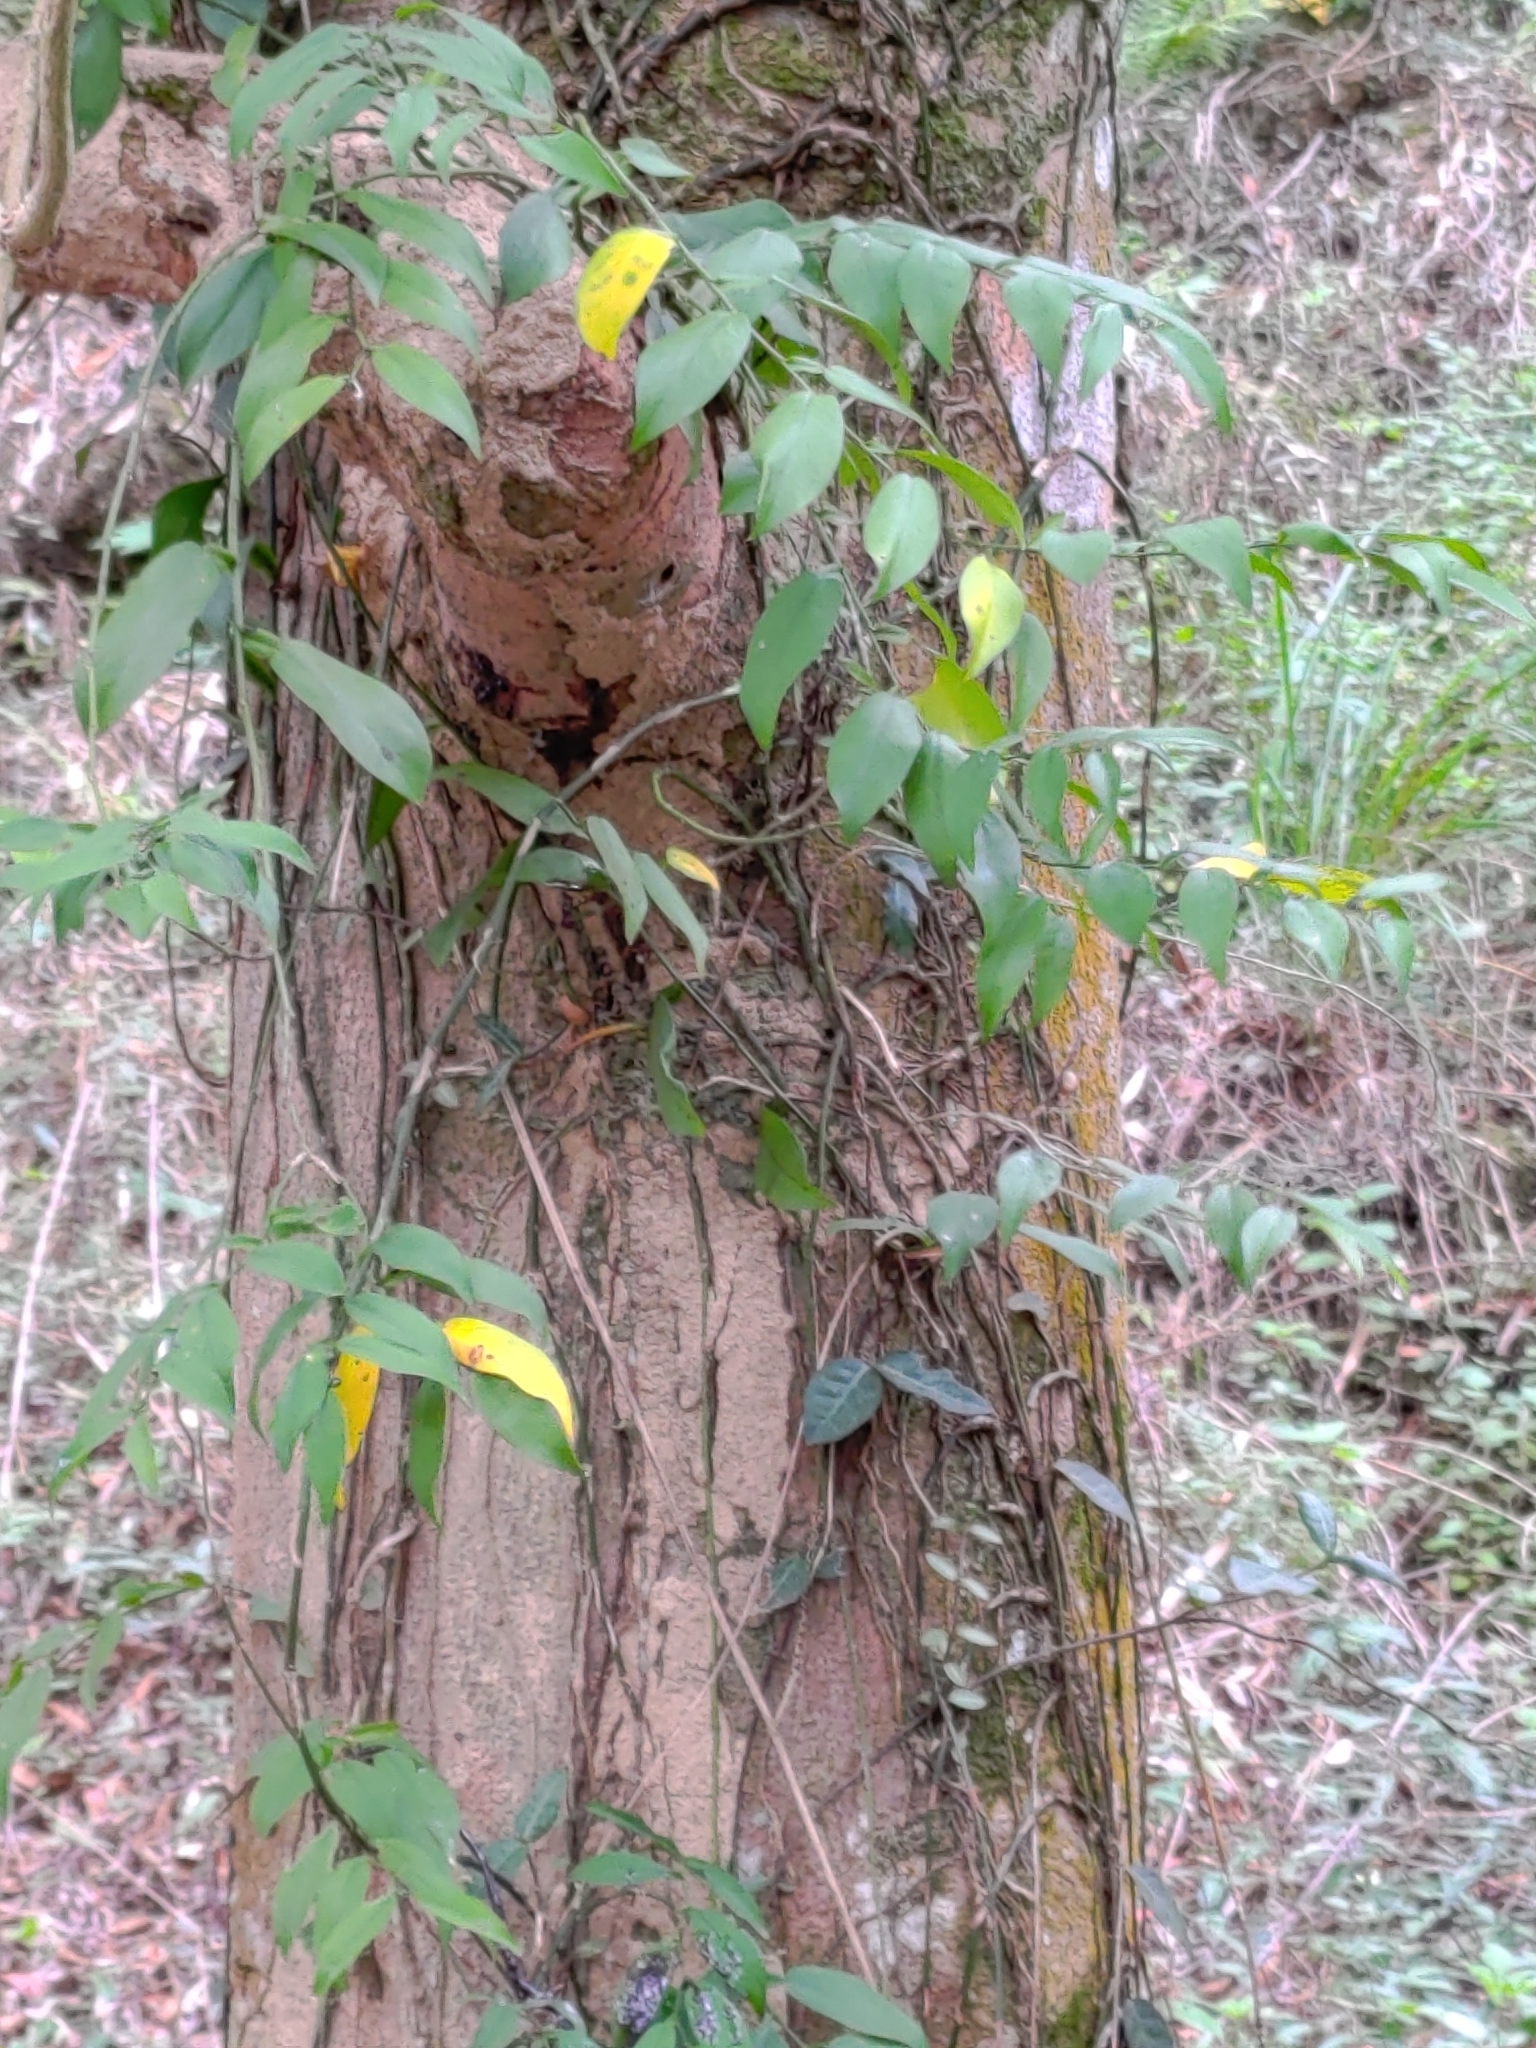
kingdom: Plantae
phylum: Tracheophyta
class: Liliopsida
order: Alismatales
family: Araceae
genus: Pothos
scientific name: Pothos chinensis
